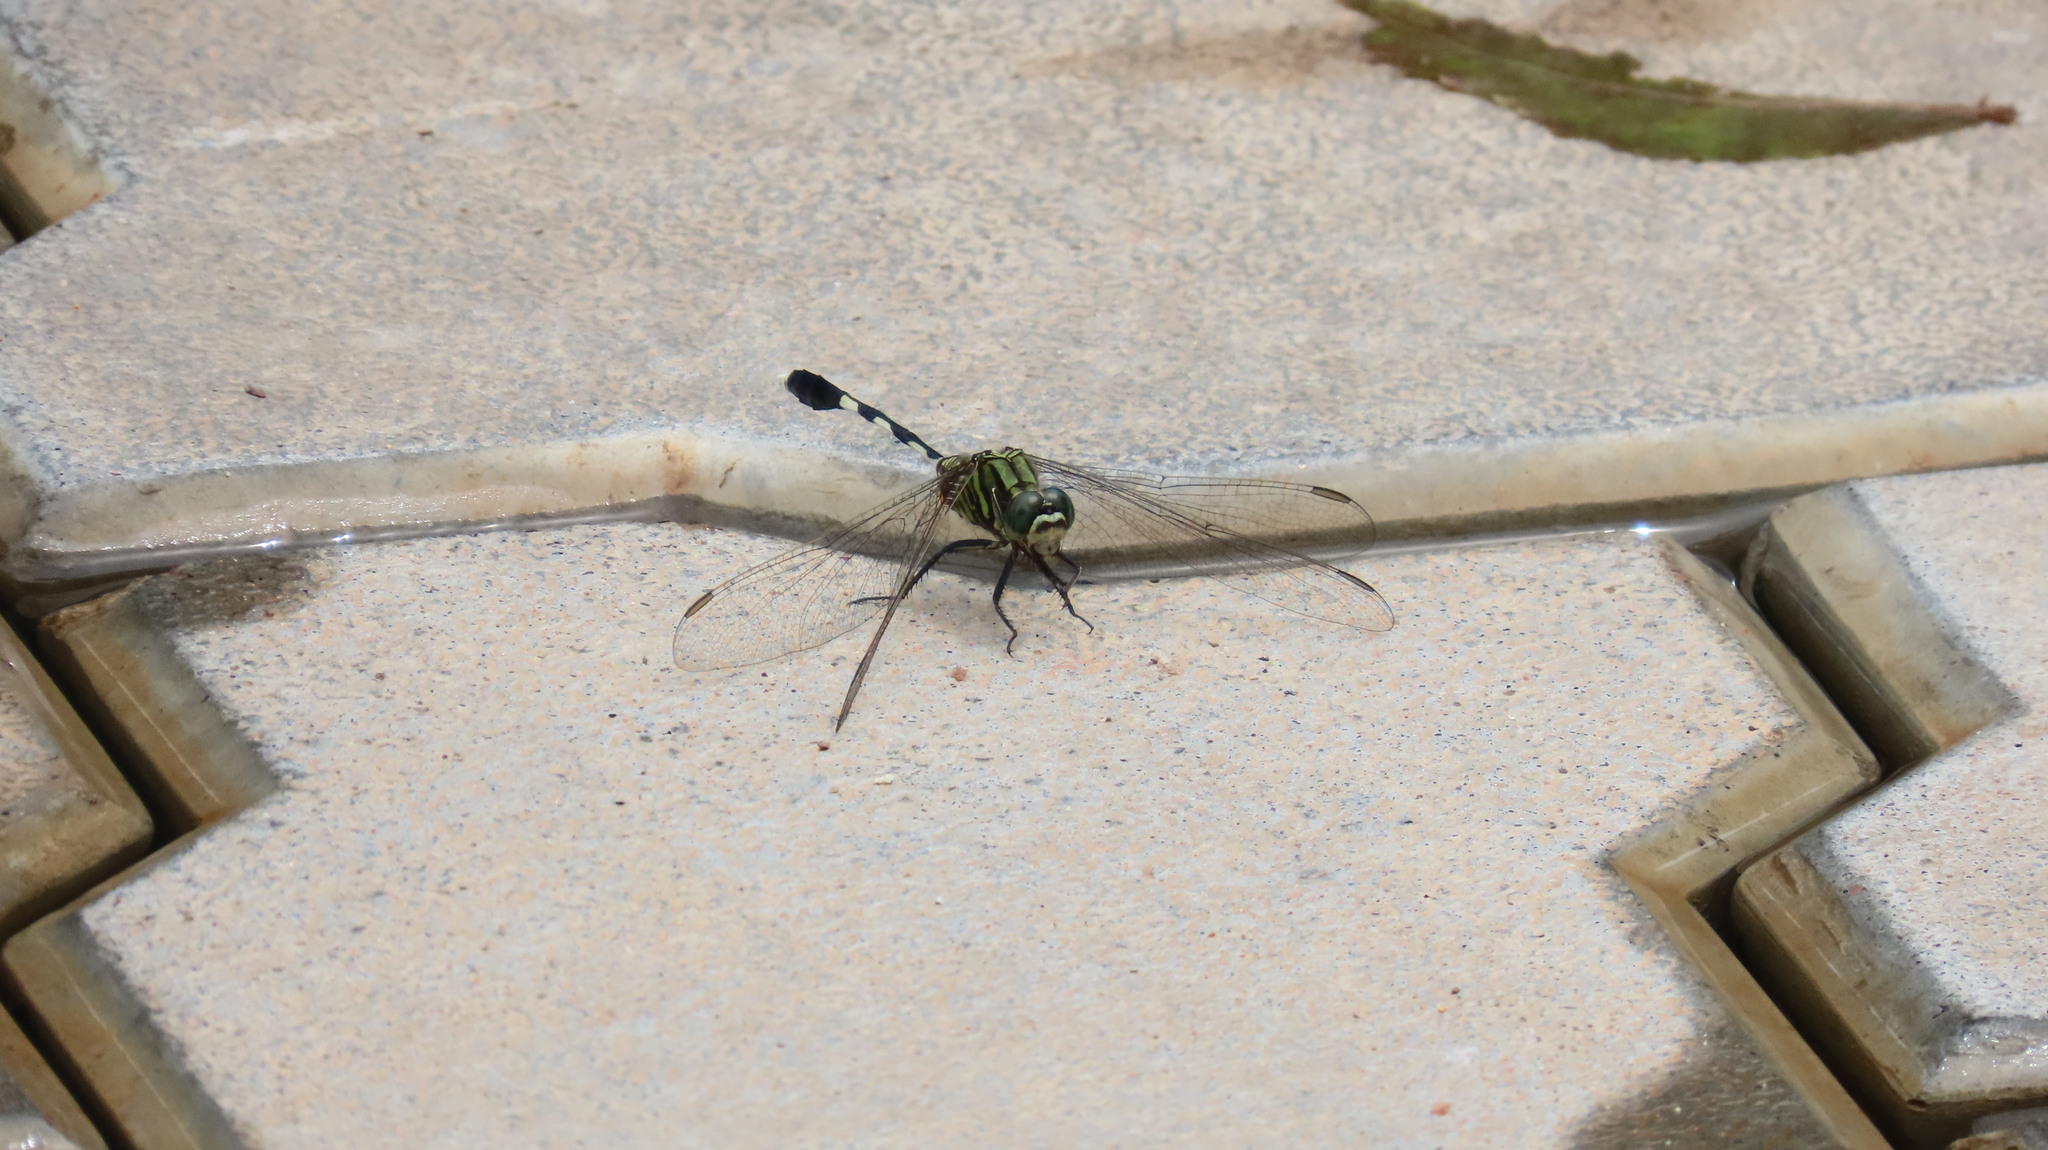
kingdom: Animalia
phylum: Arthropoda
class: Insecta
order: Odonata
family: Libellulidae
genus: Orthetrum
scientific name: Orthetrum sabina
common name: Slender skimmer
